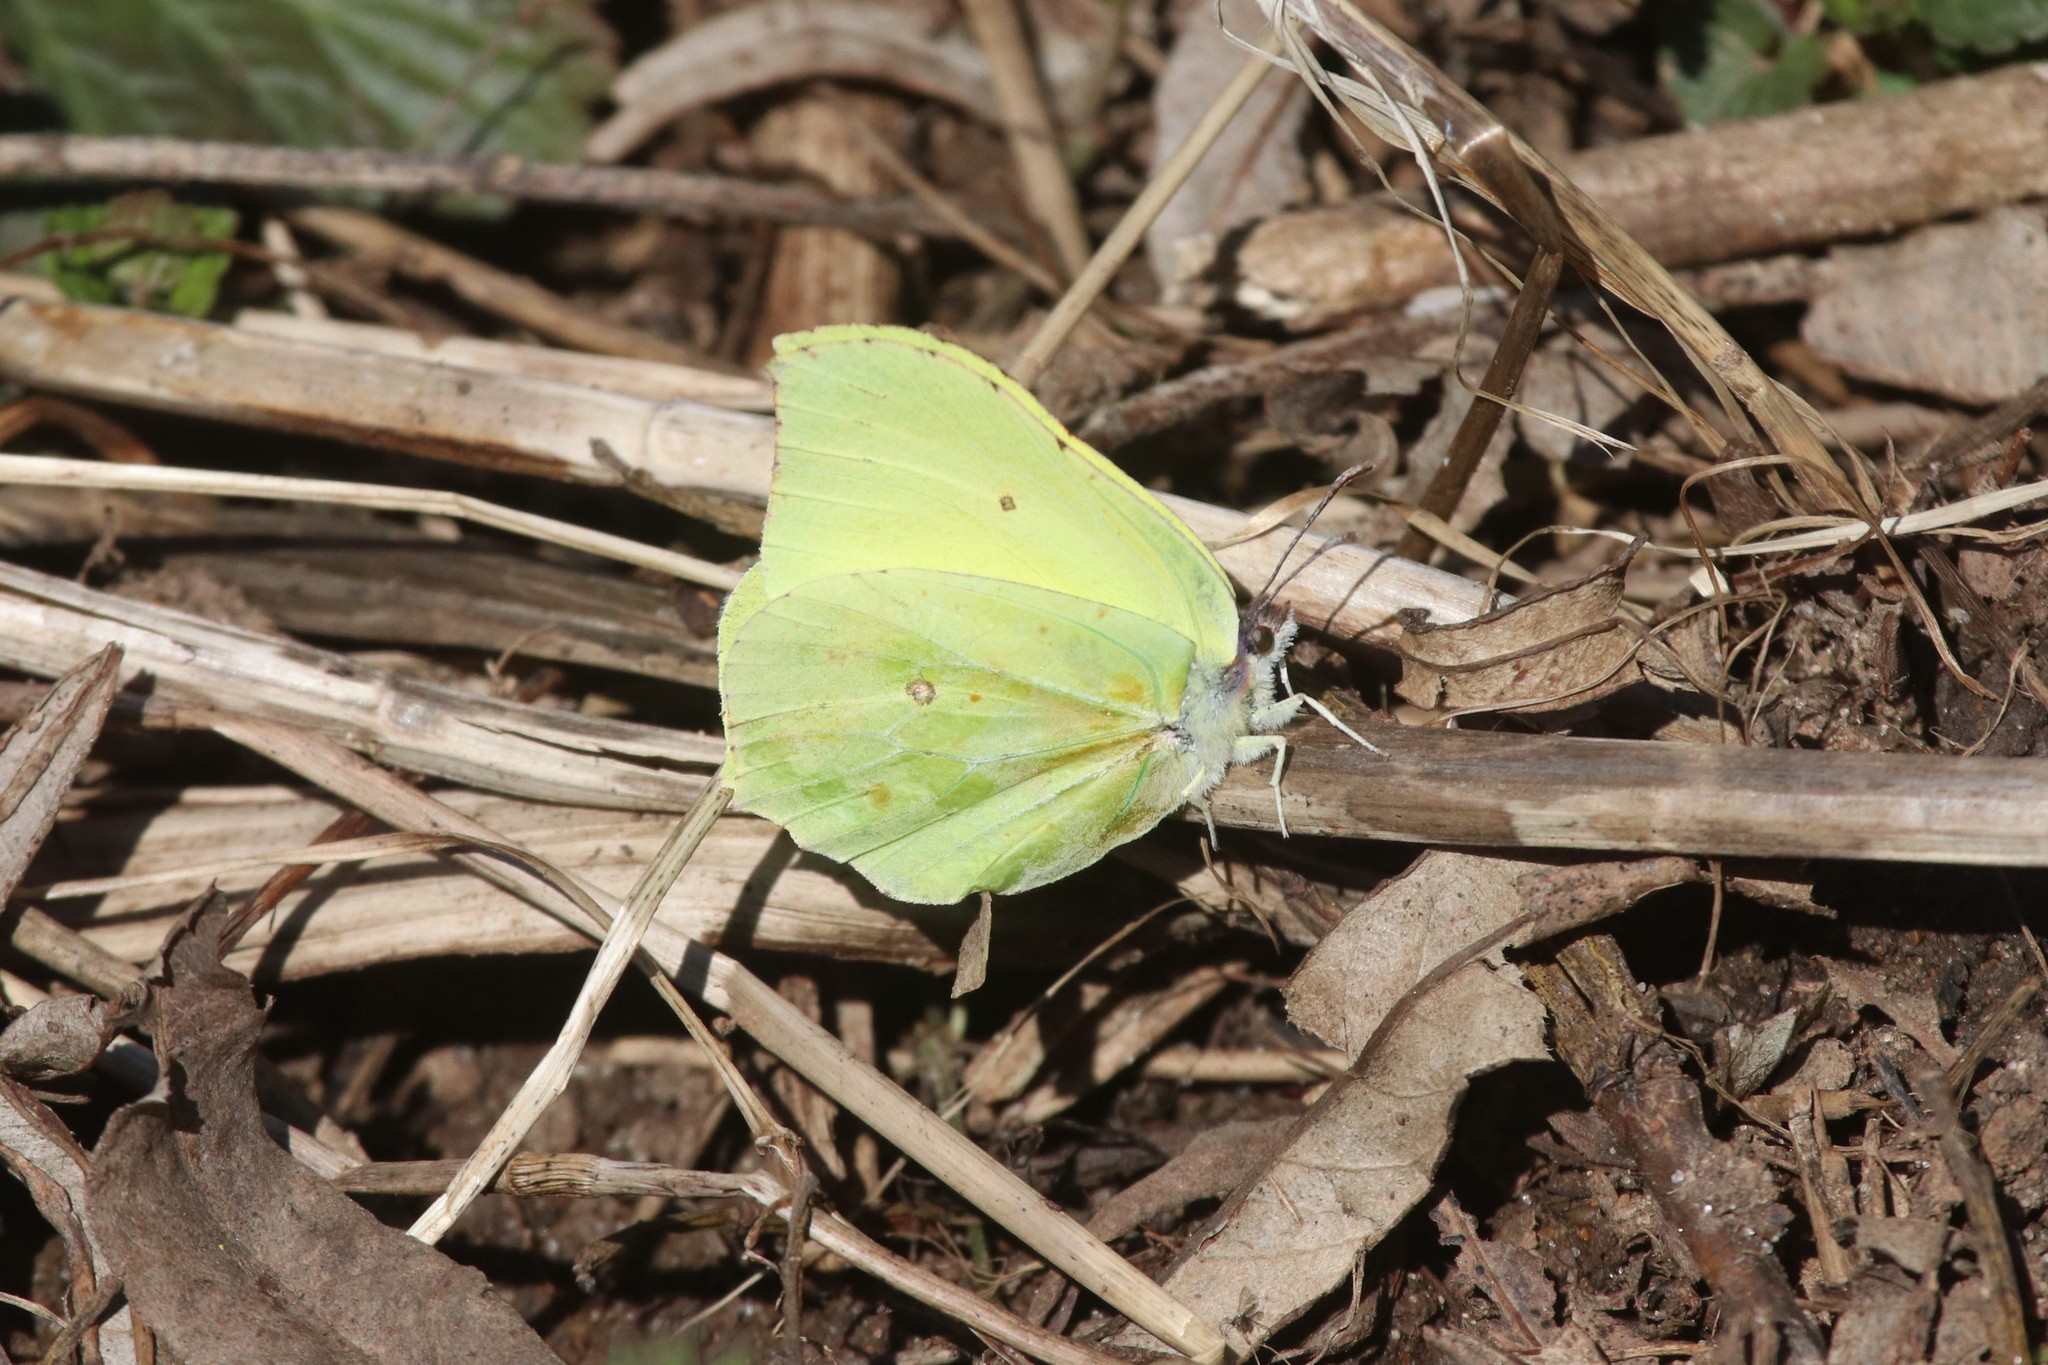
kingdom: Animalia
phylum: Arthropoda
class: Insecta
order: Lepidoptera
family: Pieridae
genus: Gonepteryx
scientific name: Gonepteryx rhamni
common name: Brimstone
